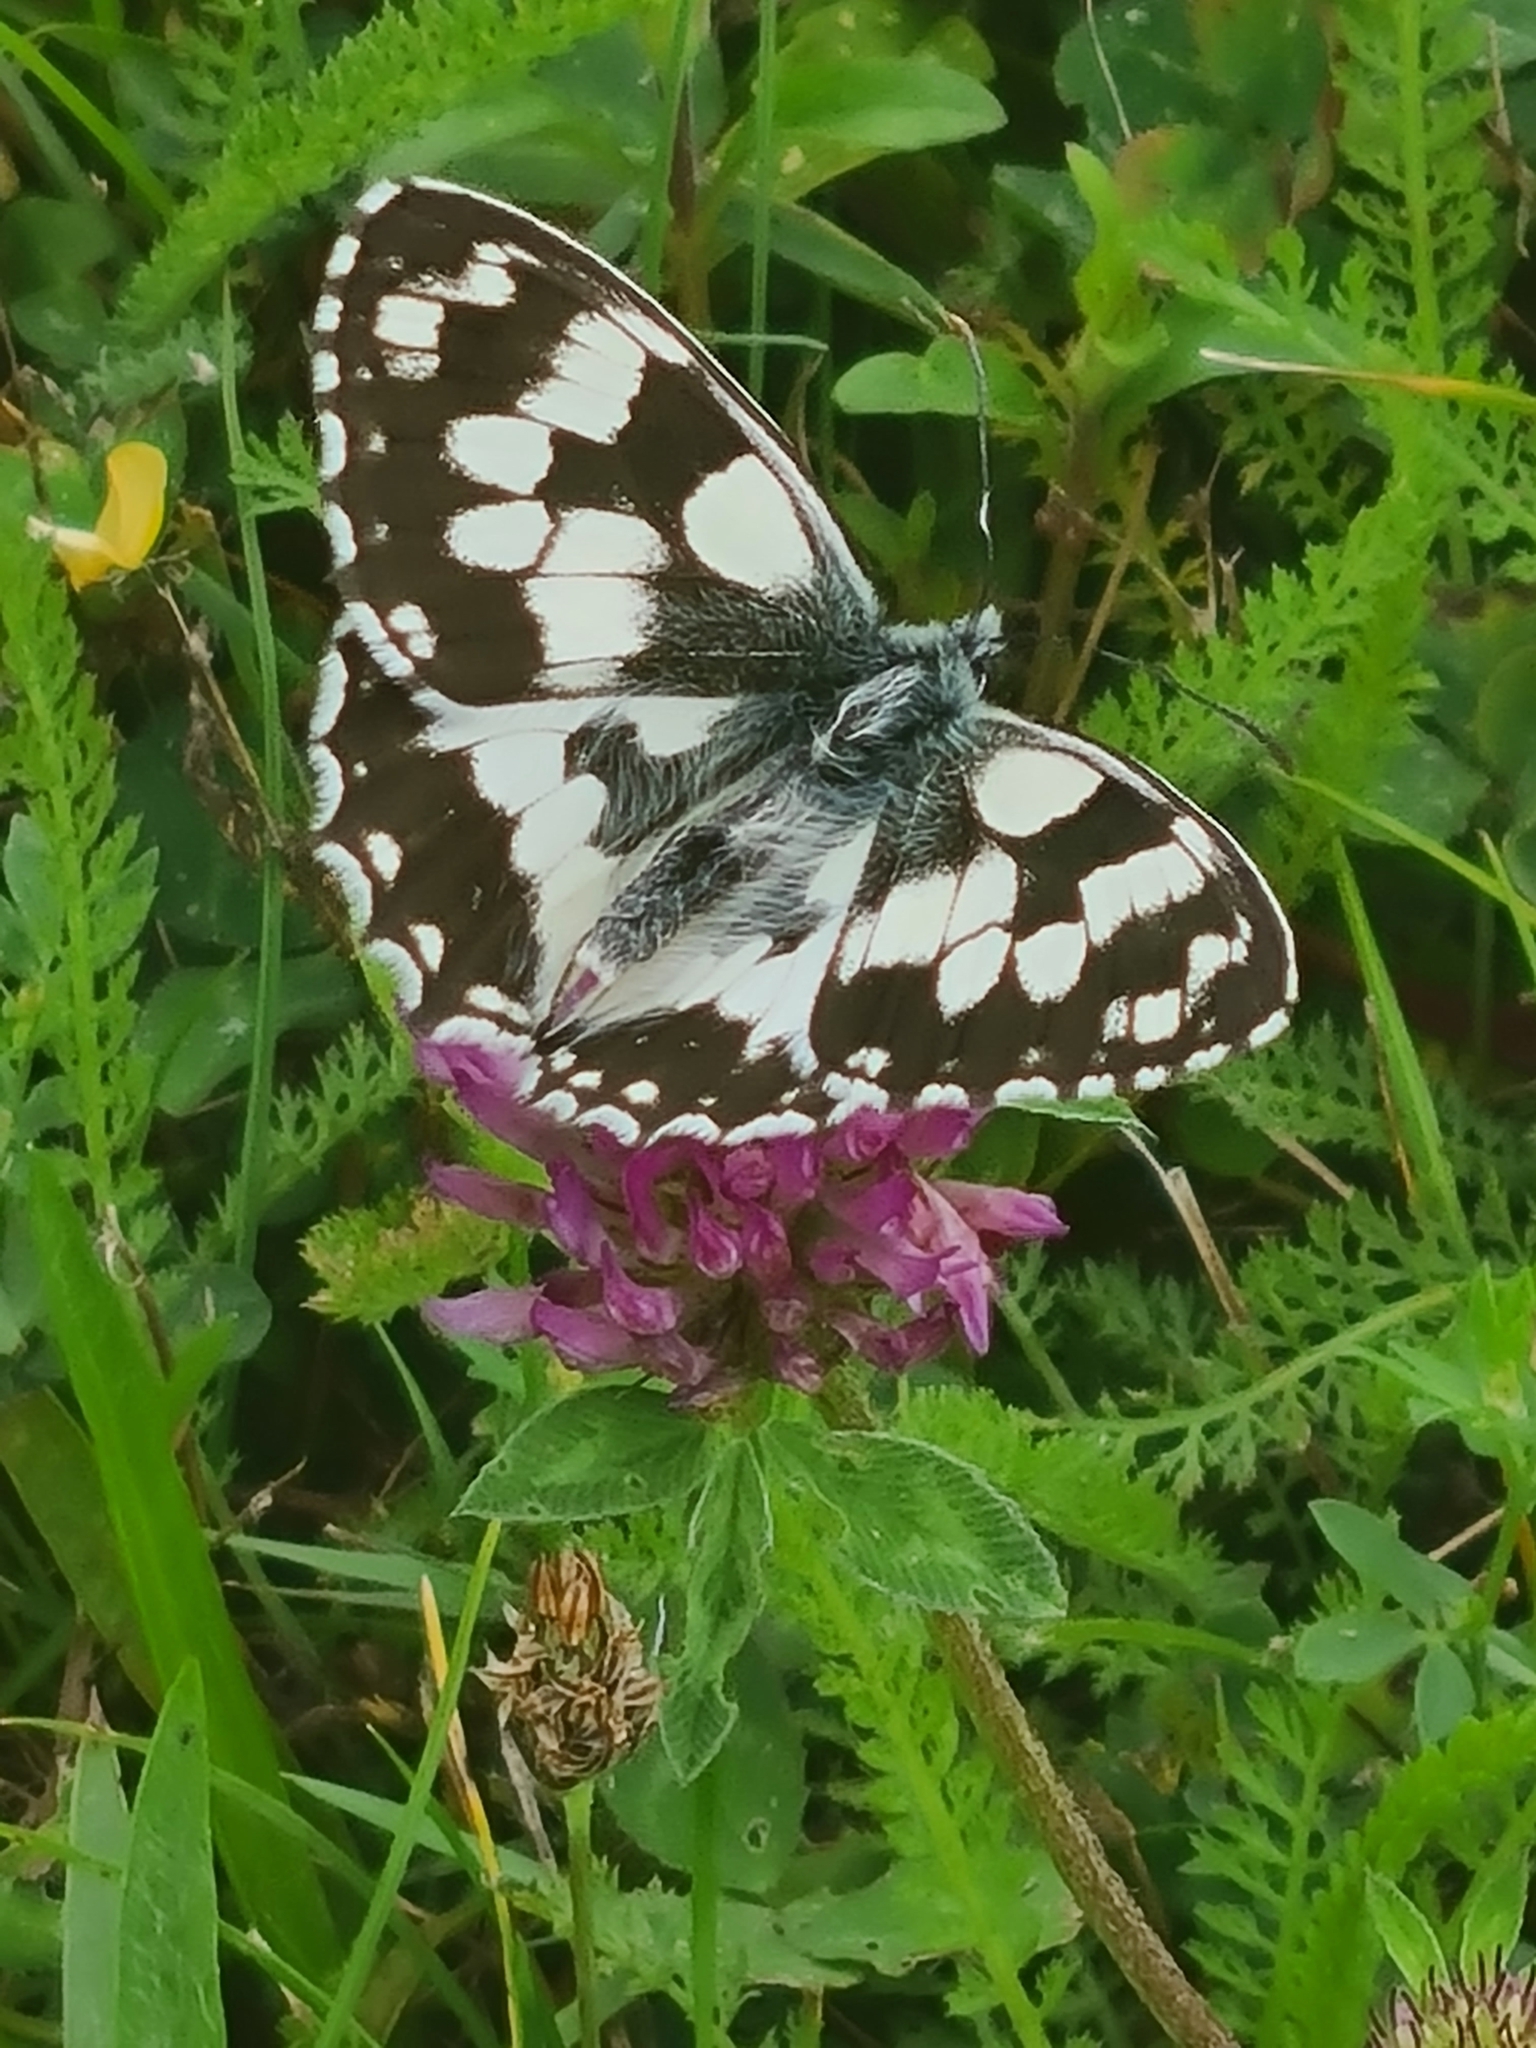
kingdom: Animalia
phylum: Arthropoda
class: Insecta
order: Lepidoptera
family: Nymphalidae
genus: Melanargia
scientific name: Melanargia galathea
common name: Marbled white
